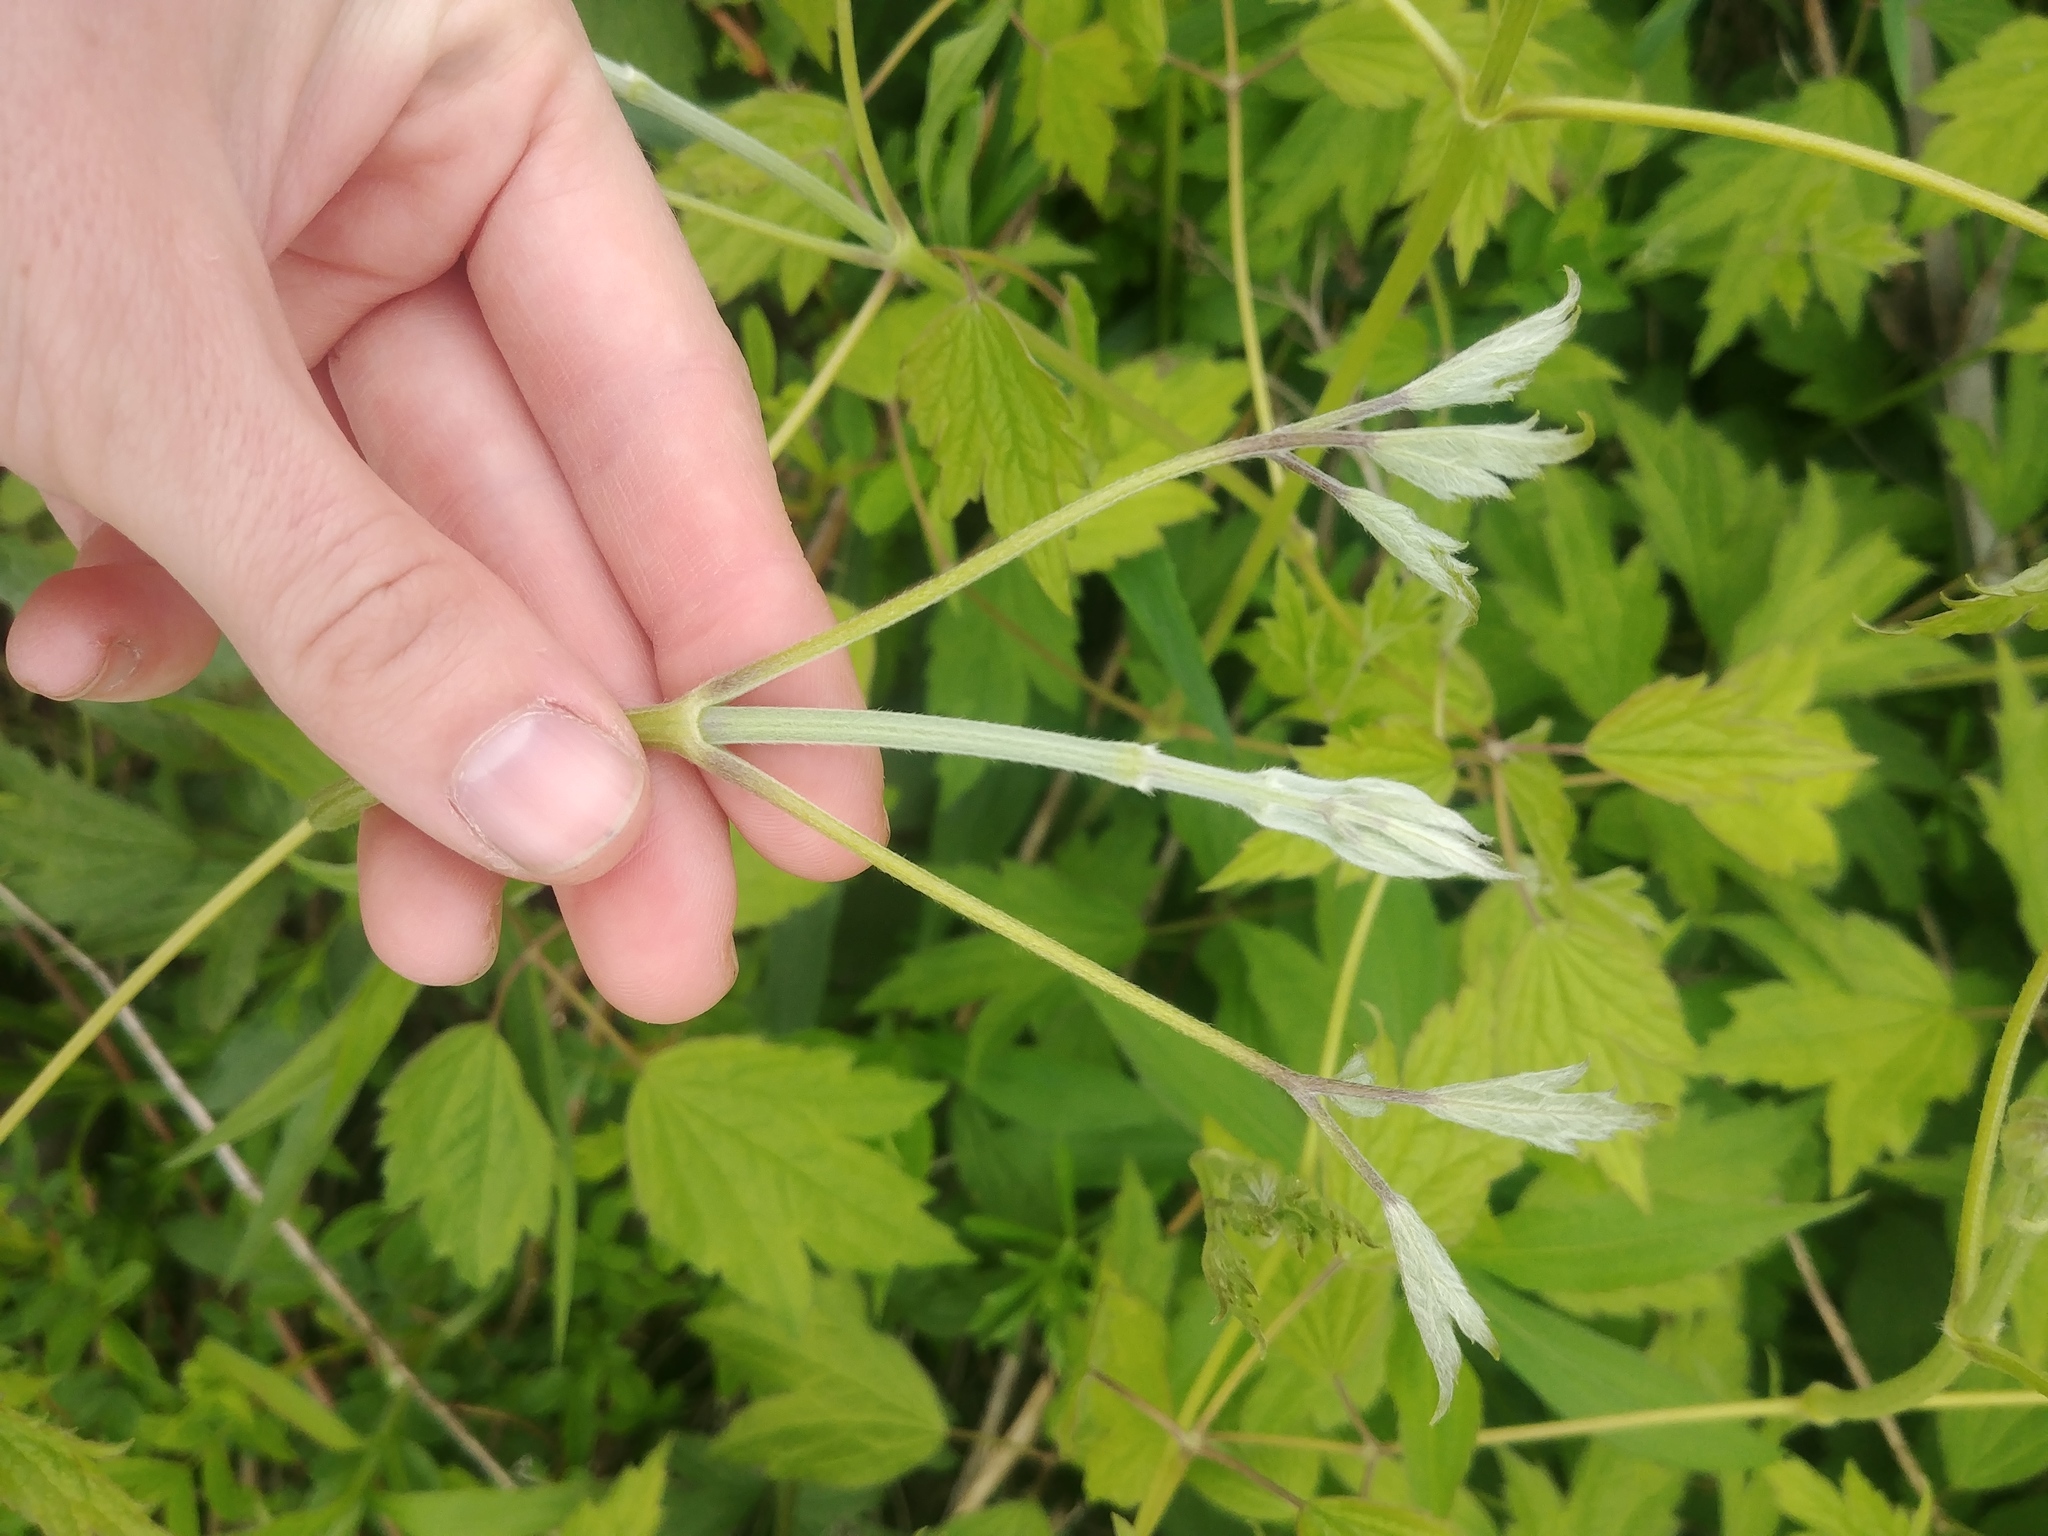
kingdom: Plantae
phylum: Tracheophyta
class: Magnoliopsida
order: Ranunculales
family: Ranunculaceae
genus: Clematis
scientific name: Clematis virginiana
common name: Virgin's-bower
